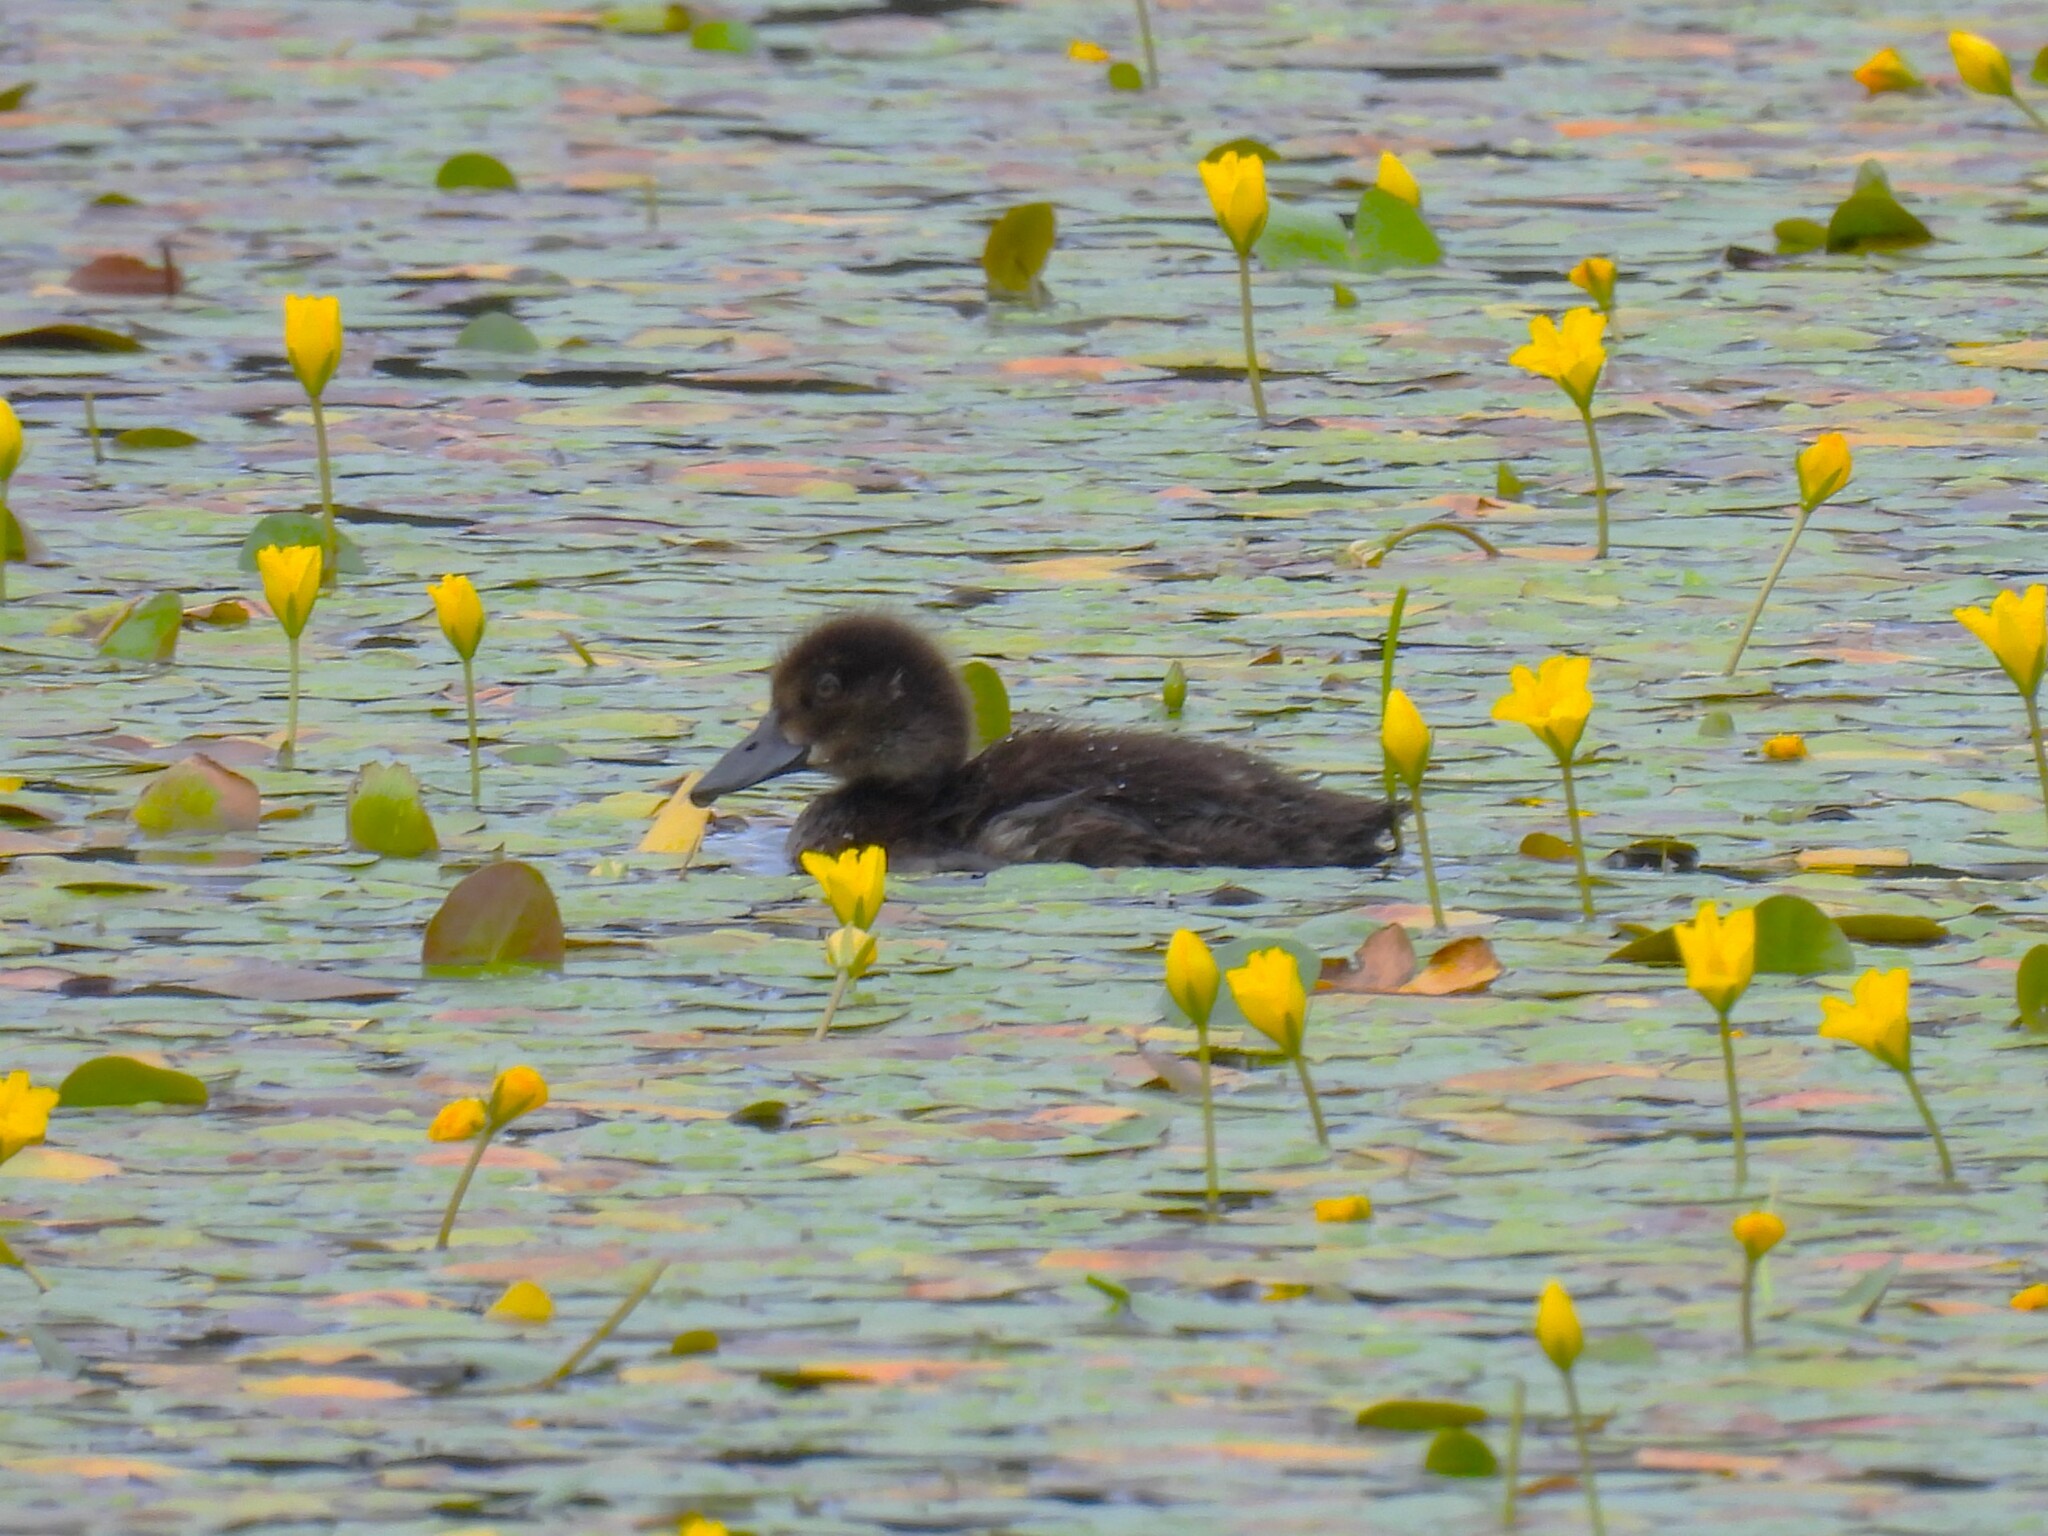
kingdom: Animalia
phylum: Chordata
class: Aves
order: Anseriformes
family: Anatidae
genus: Aythya
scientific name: Aythya fuligula
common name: Tufted duck
